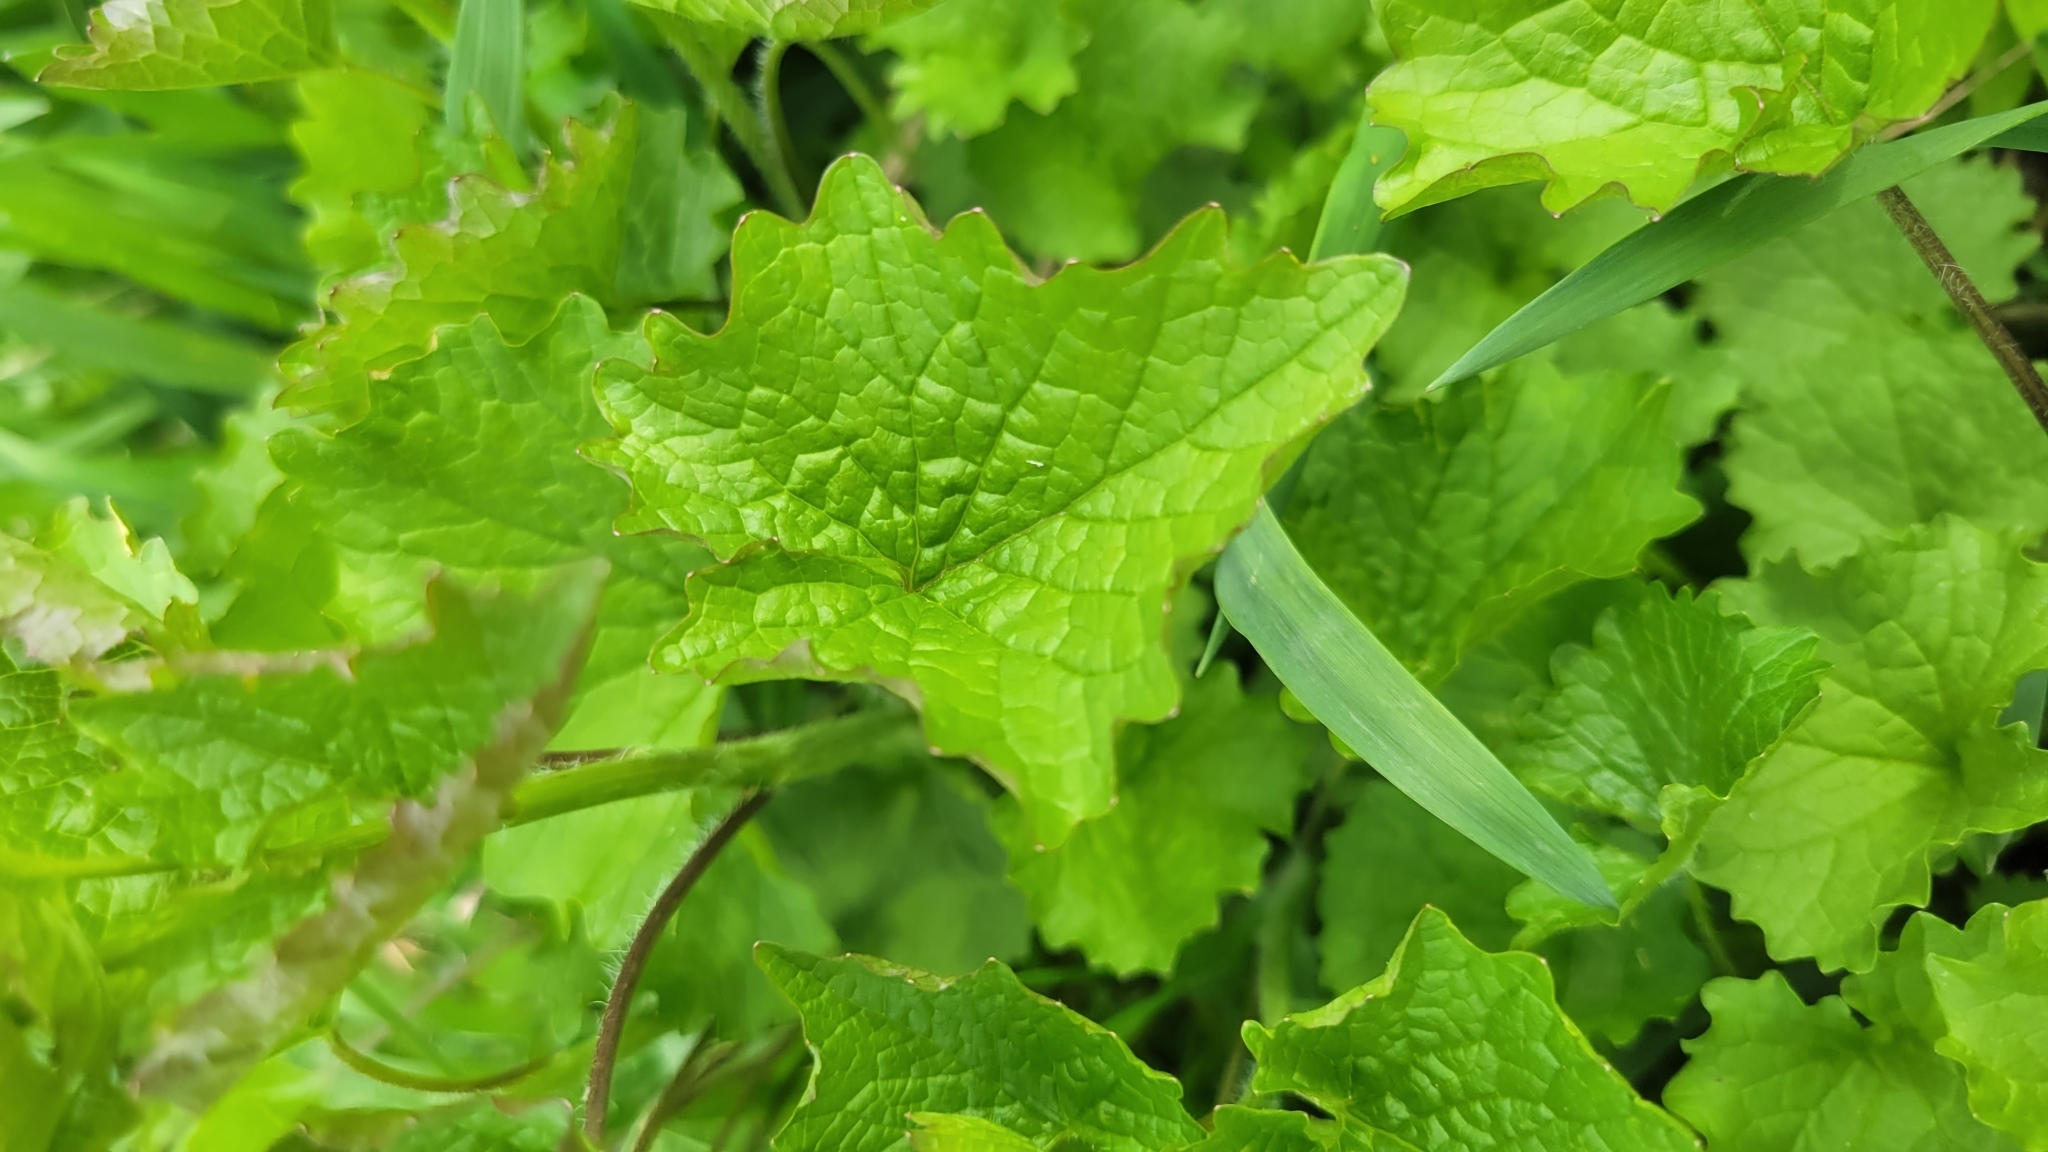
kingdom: Plantae
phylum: Tracheophyta
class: Magnoliopsida
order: Brassicales
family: Brassicaceae
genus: Alliaria
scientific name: Alliaria petiolata
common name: Garlic mustard
